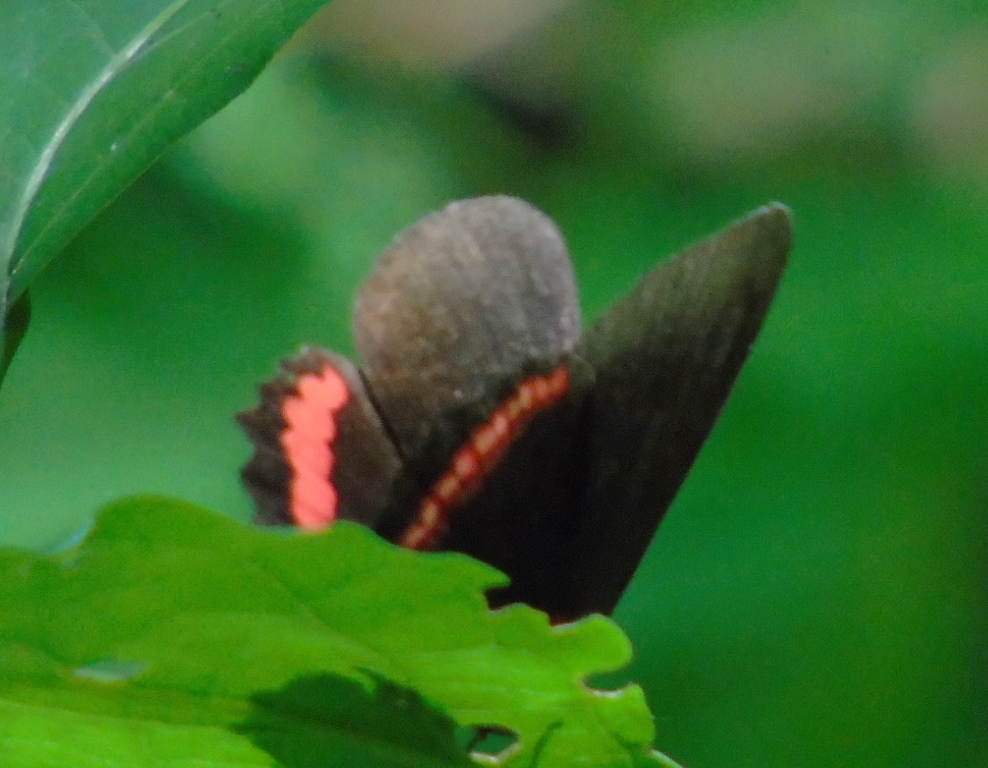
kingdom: Animalia
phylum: Arthropoda
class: Insecta
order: Lepidoptera
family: Nymphalidae
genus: Biblis
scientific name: Biblis aganisa
